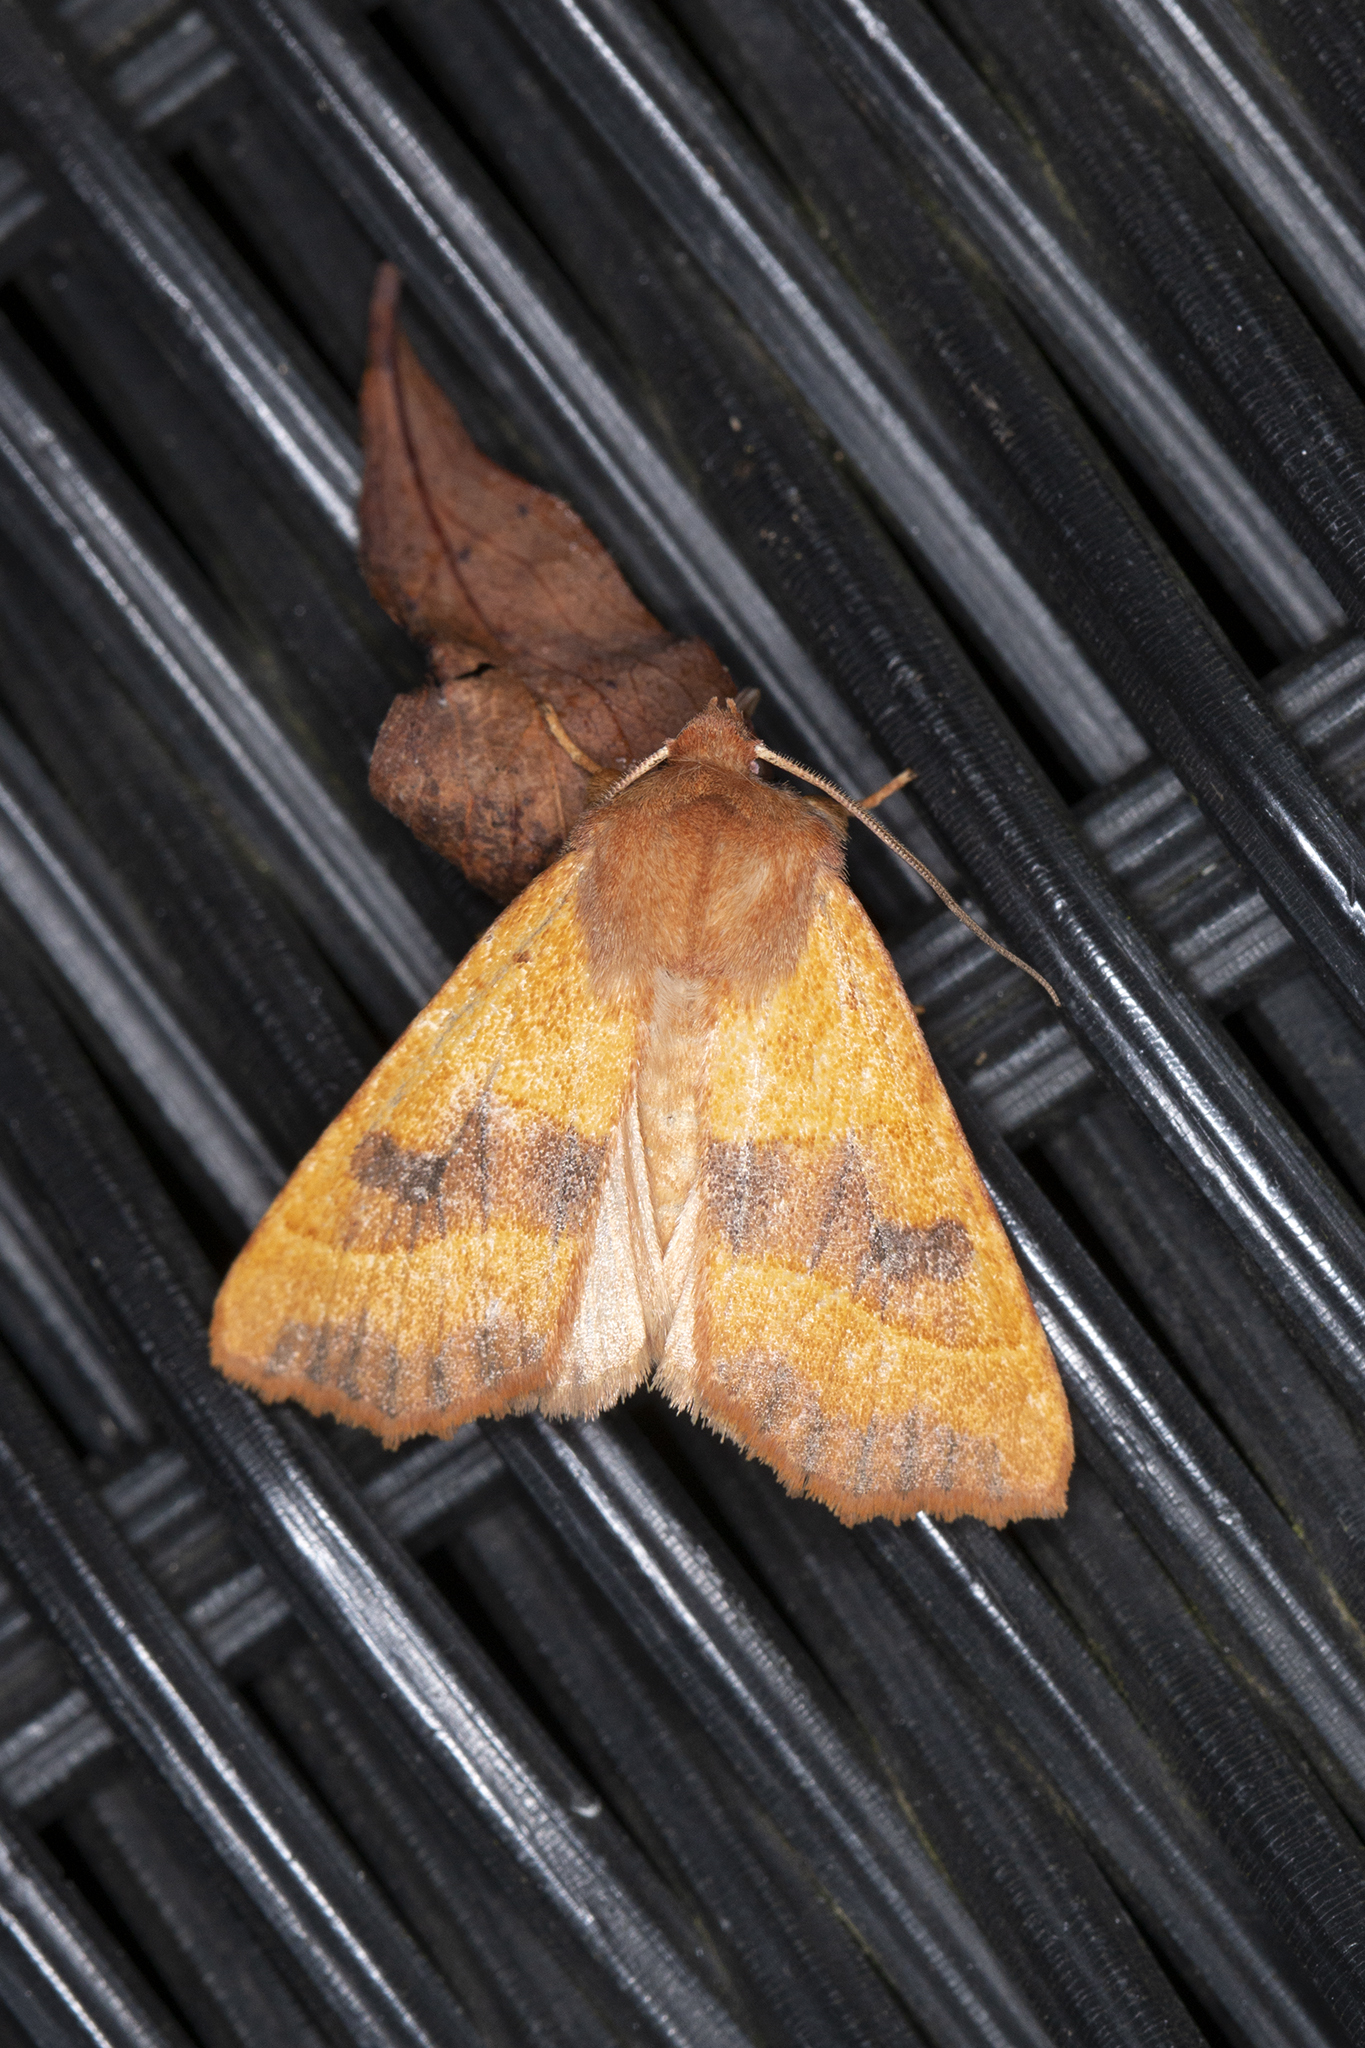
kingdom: Animalia
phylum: Arthropoda
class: Insecta
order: Lepidoptera
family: Noctuidae
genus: Atethmia
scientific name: Atethmia centrago
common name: Centre-barred sallow
